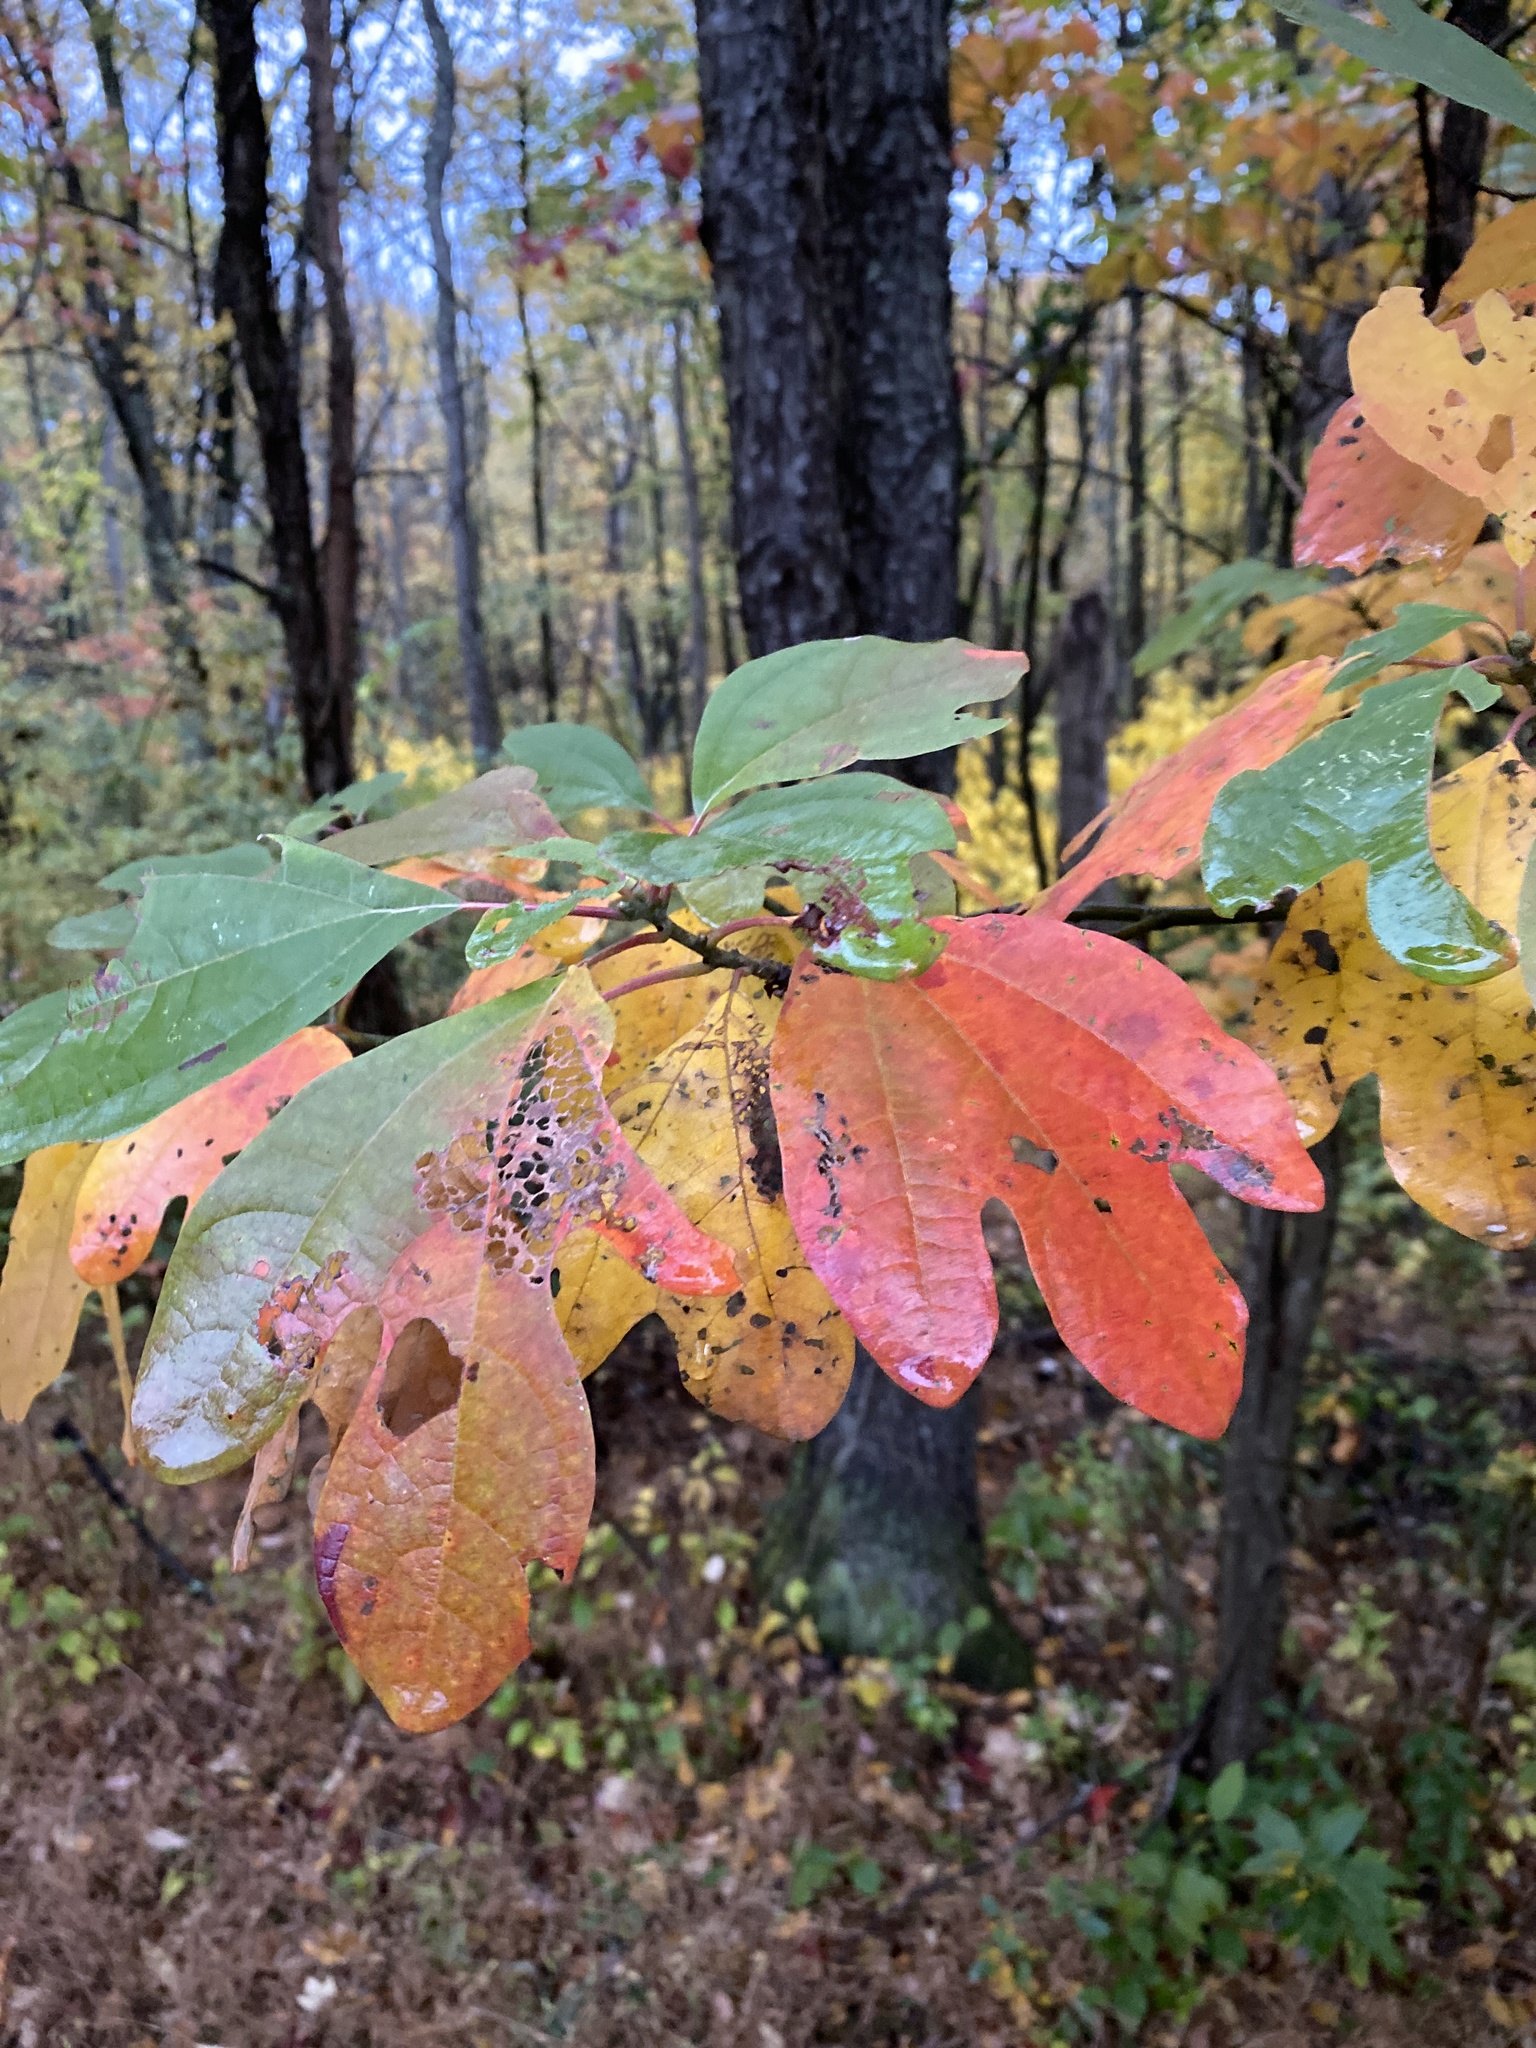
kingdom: Plantae
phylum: Tracheophyta
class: Magnoliopsida
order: Laurales
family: Lauraceae
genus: Sassafras
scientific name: Sassafras albidum
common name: Sassafras
